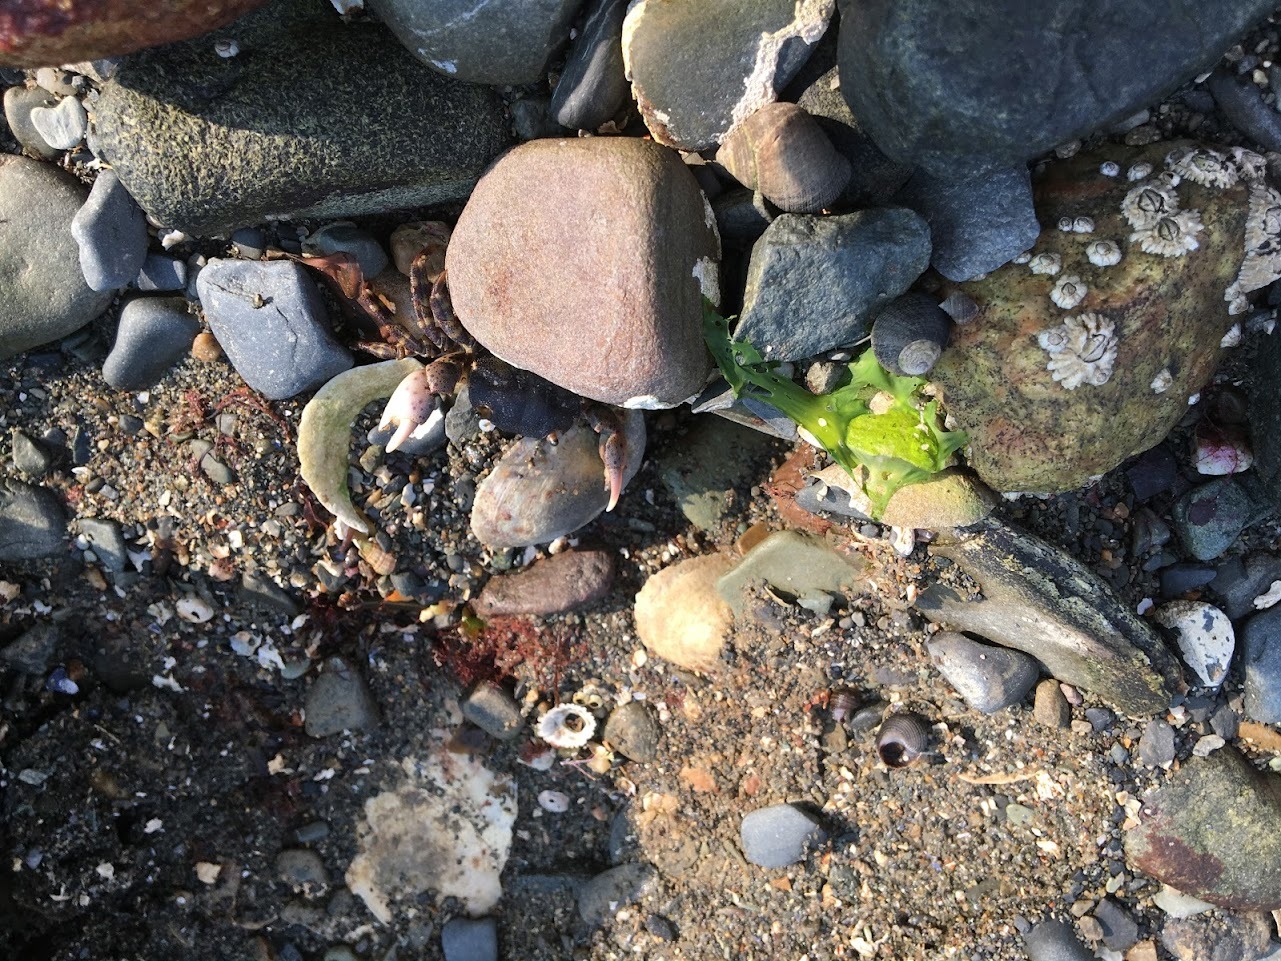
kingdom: Animalia
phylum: Arthropoda
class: Malacostraca
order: Decapoda
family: Varunidae
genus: Hemigrapsus
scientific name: Hemigrapsus sanguineus
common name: Asian shore crab
